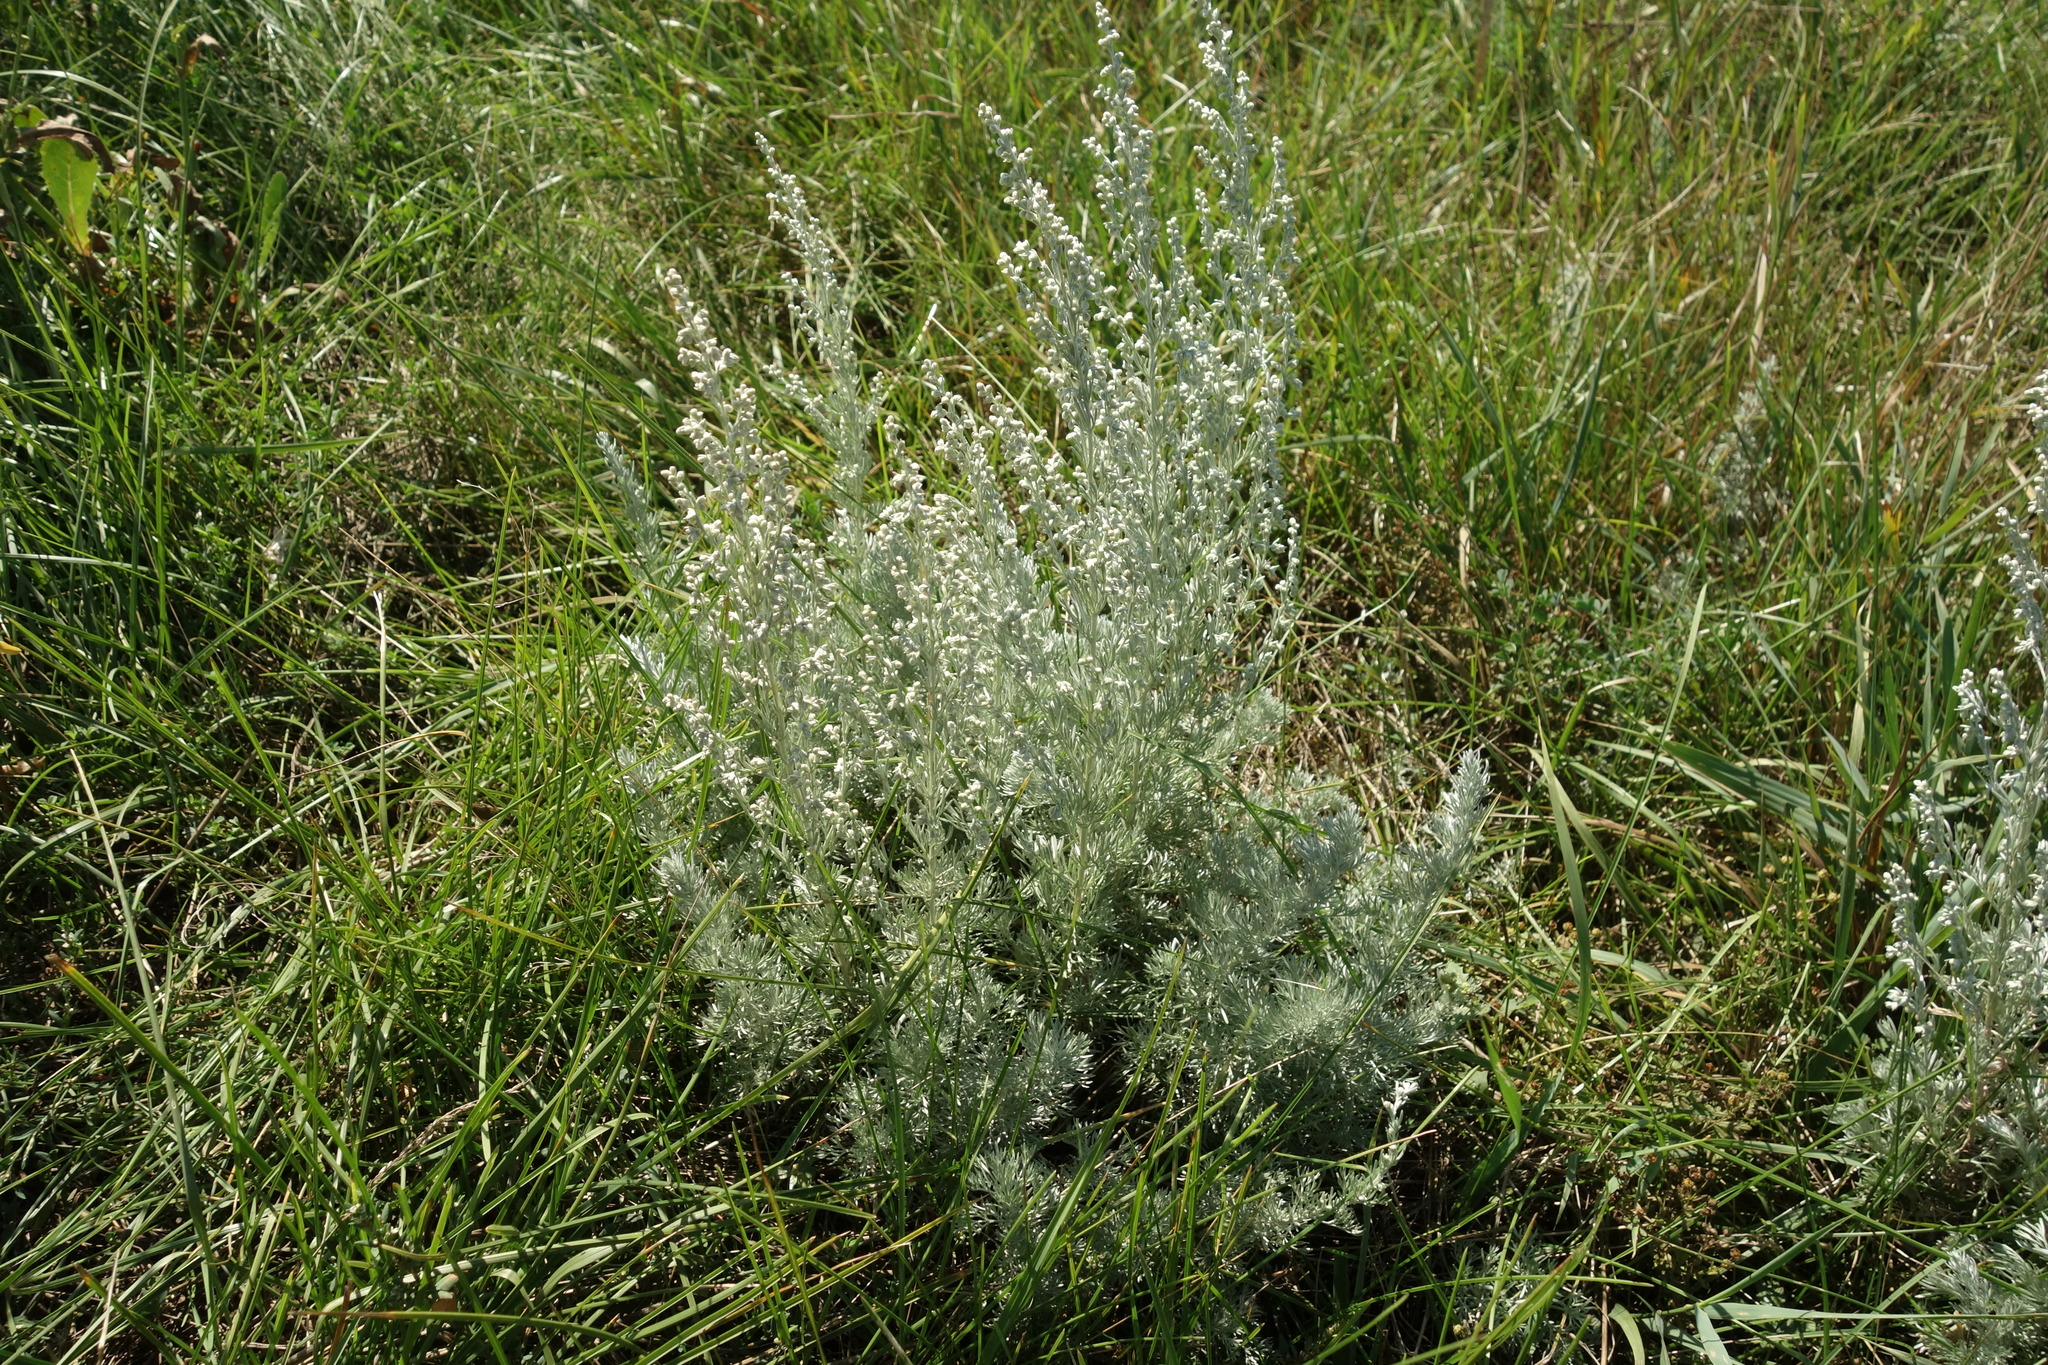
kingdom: Plantae
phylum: Tracheophyta
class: Magnoliopsida
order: Asterales
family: Asteraceae
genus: Artemisia
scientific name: Artemisia austriaca
